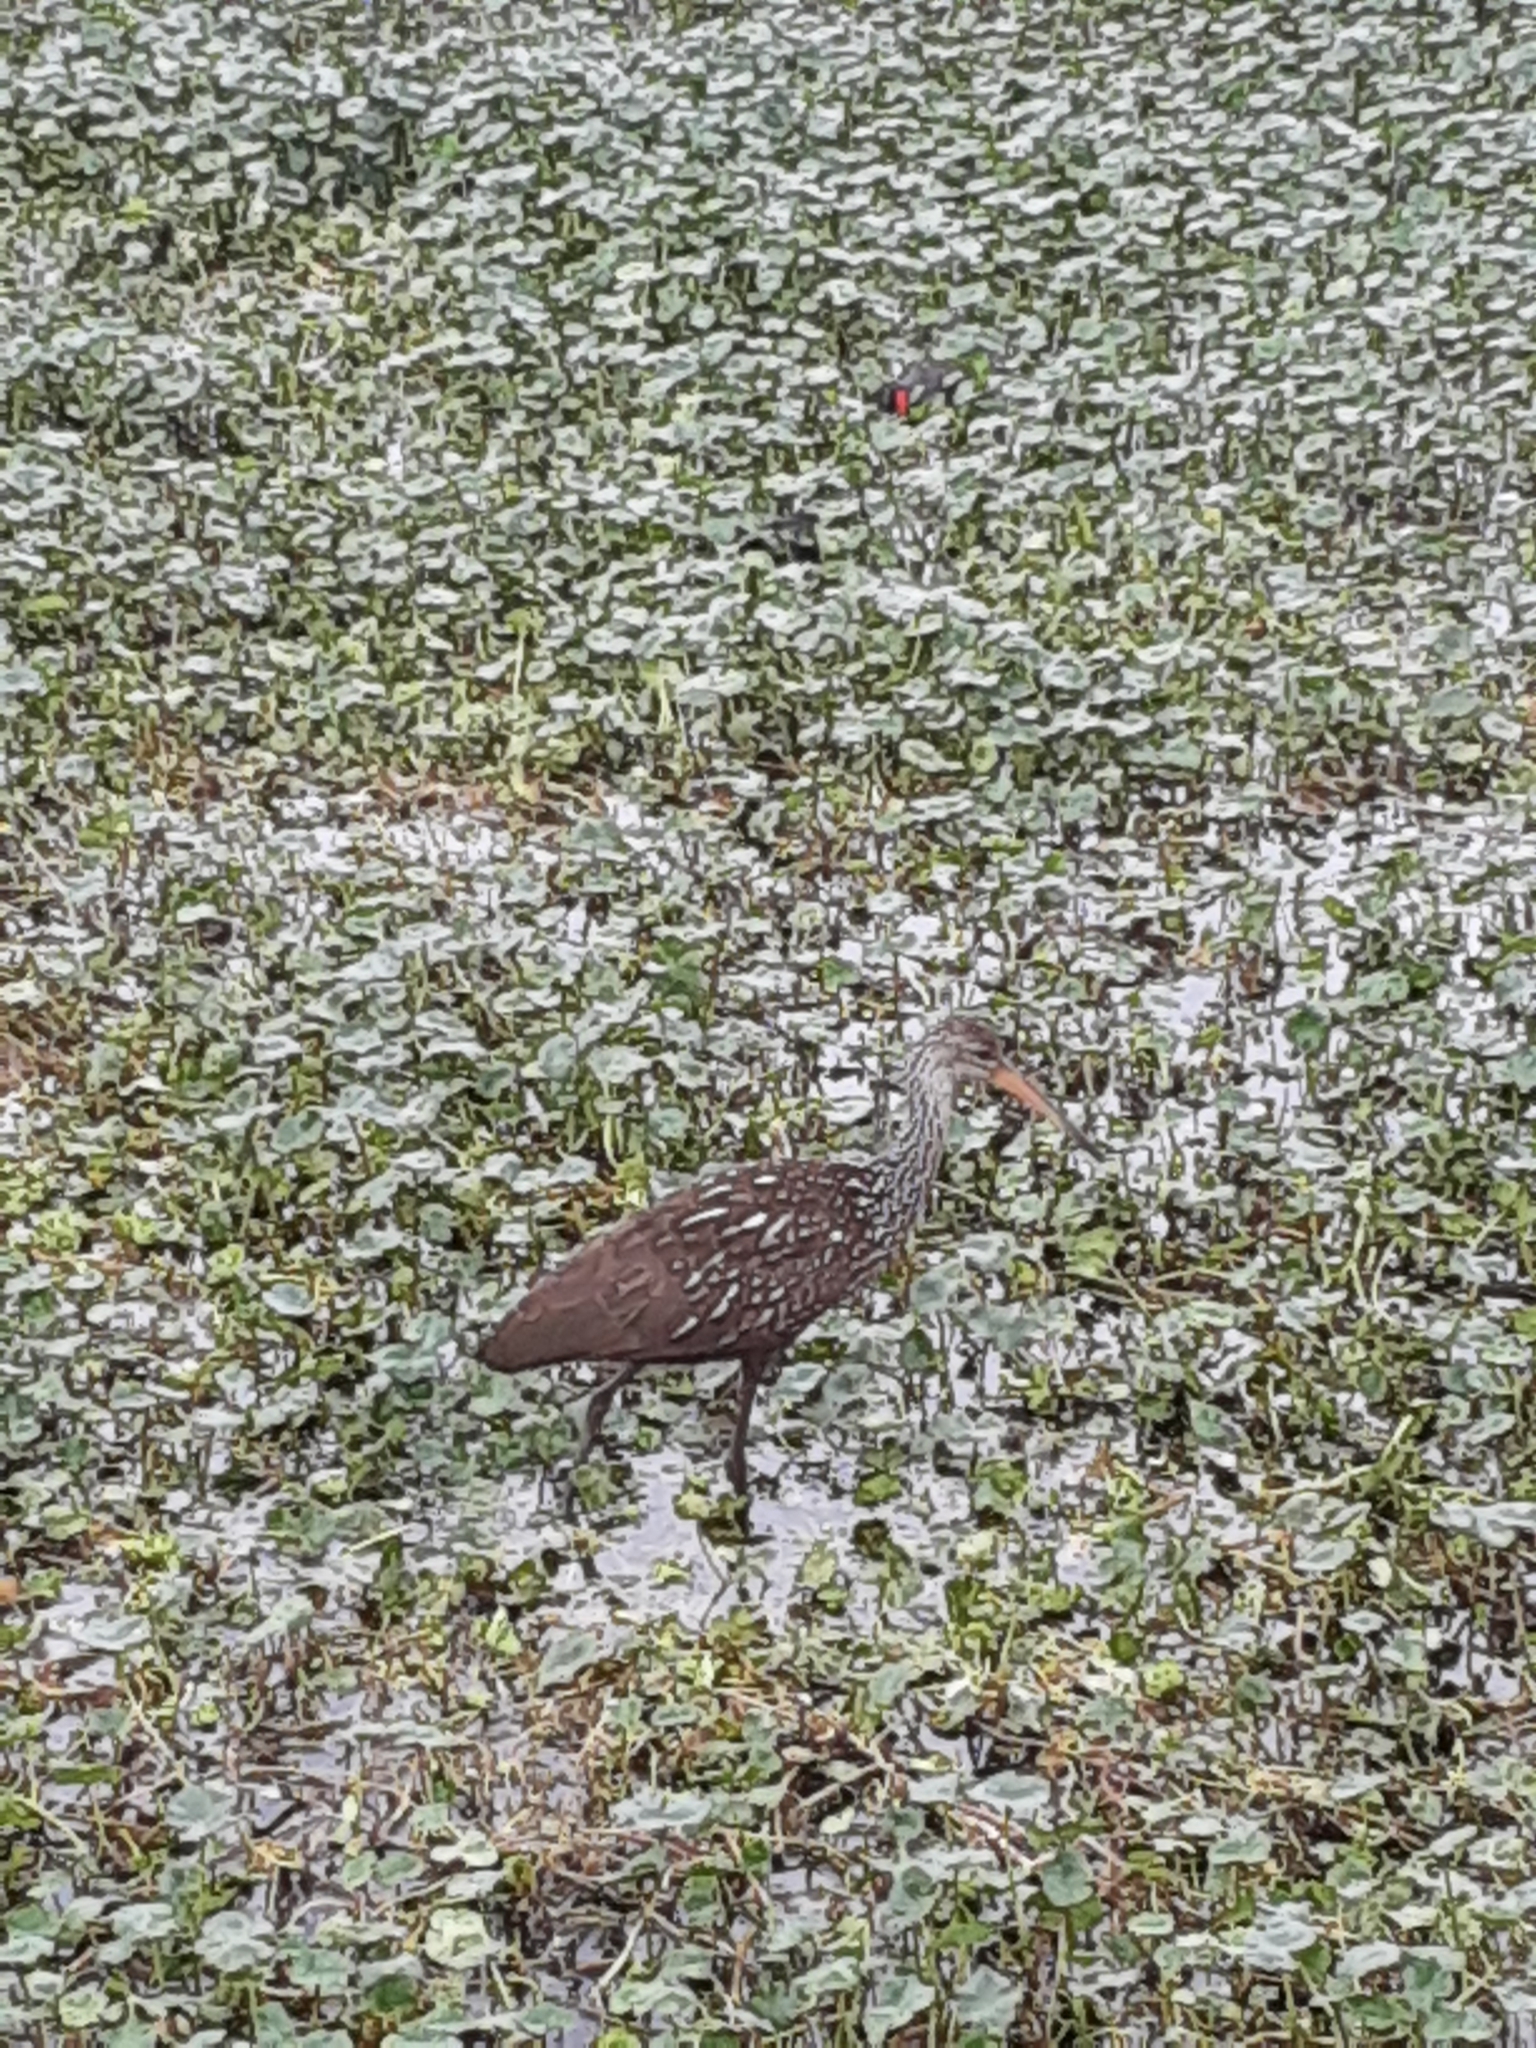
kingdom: Animalia
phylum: Chordata
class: Aves
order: Gruiformes
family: Aramidae
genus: Aramus
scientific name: Aramus guarauna
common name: Limpkin
